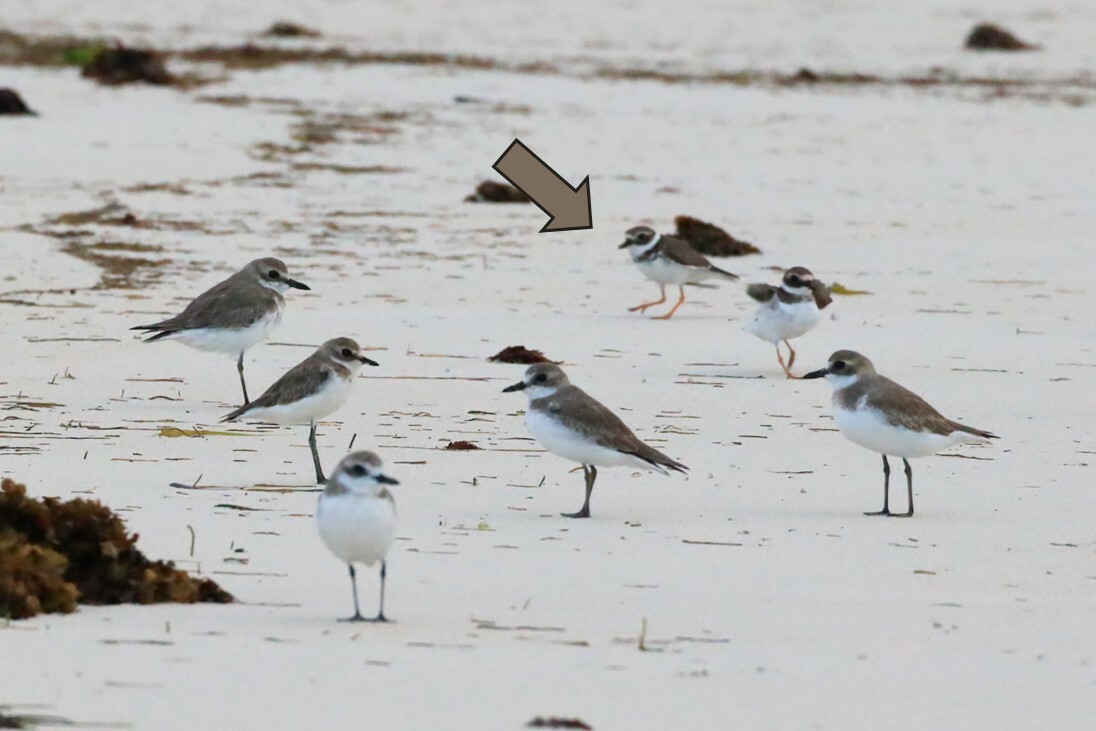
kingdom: Animalia
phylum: Chordata
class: Aves
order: Charadriiformes
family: Charadriidae
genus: Charadrius
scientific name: Charadrius hiaticula
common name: Common ringed plover
